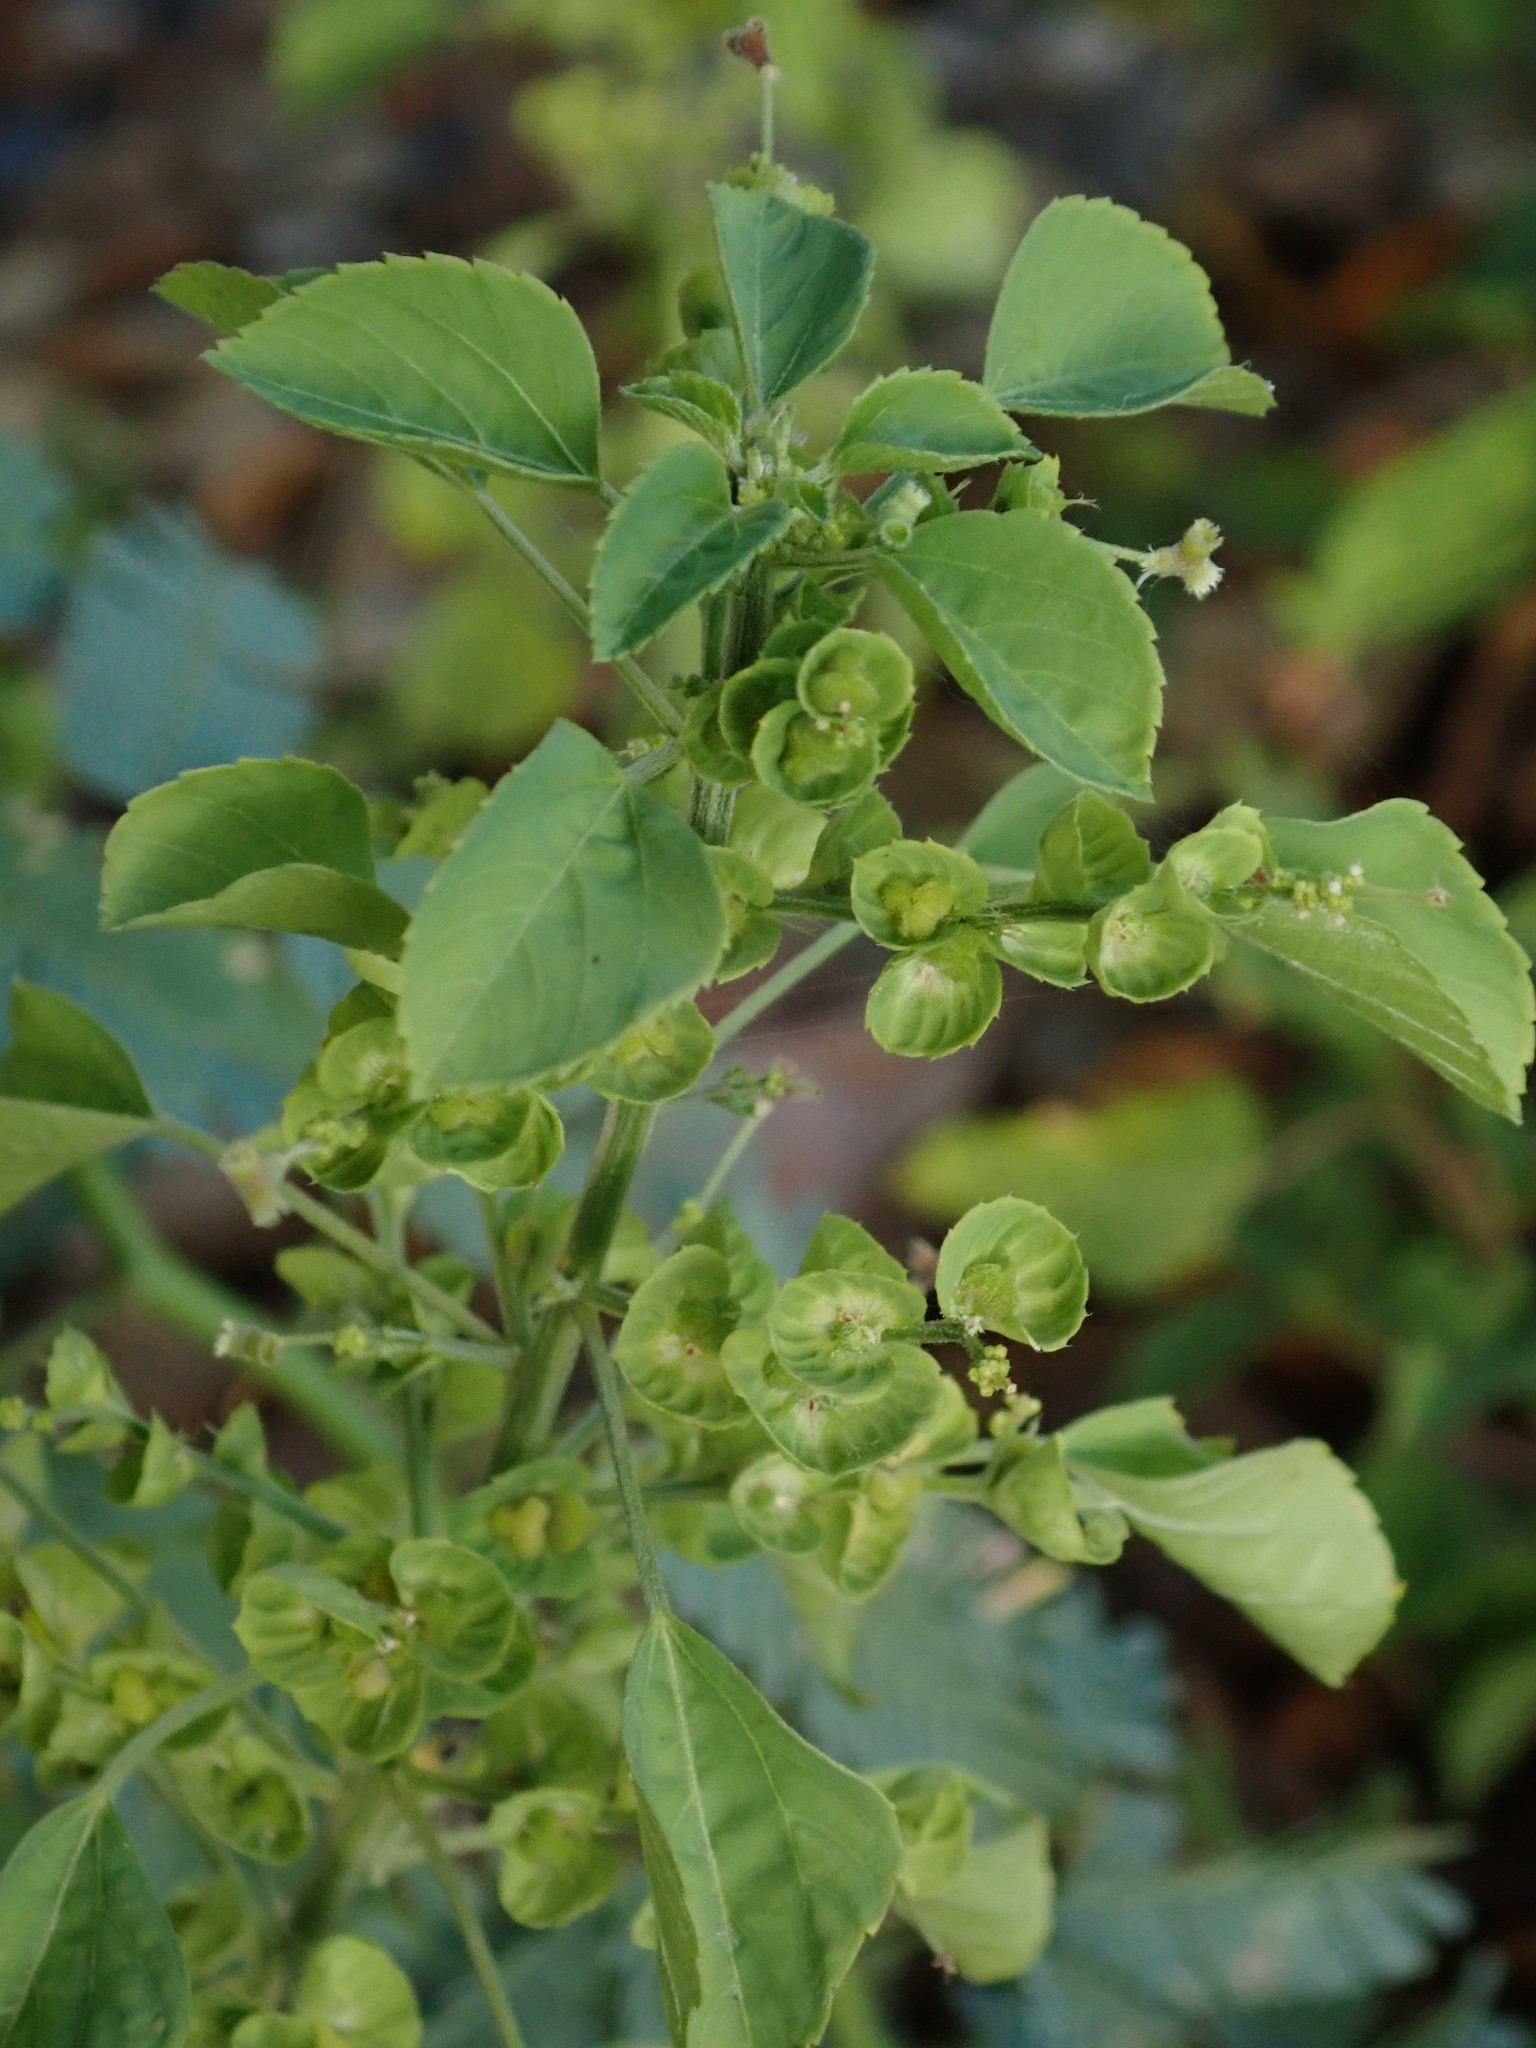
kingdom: Plantae
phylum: Tracheophyta
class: Magnoliopsida
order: Malpighiales
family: Euphorbiaceae
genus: Acalypha
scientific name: Acalypha indica
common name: Indian acalypha
